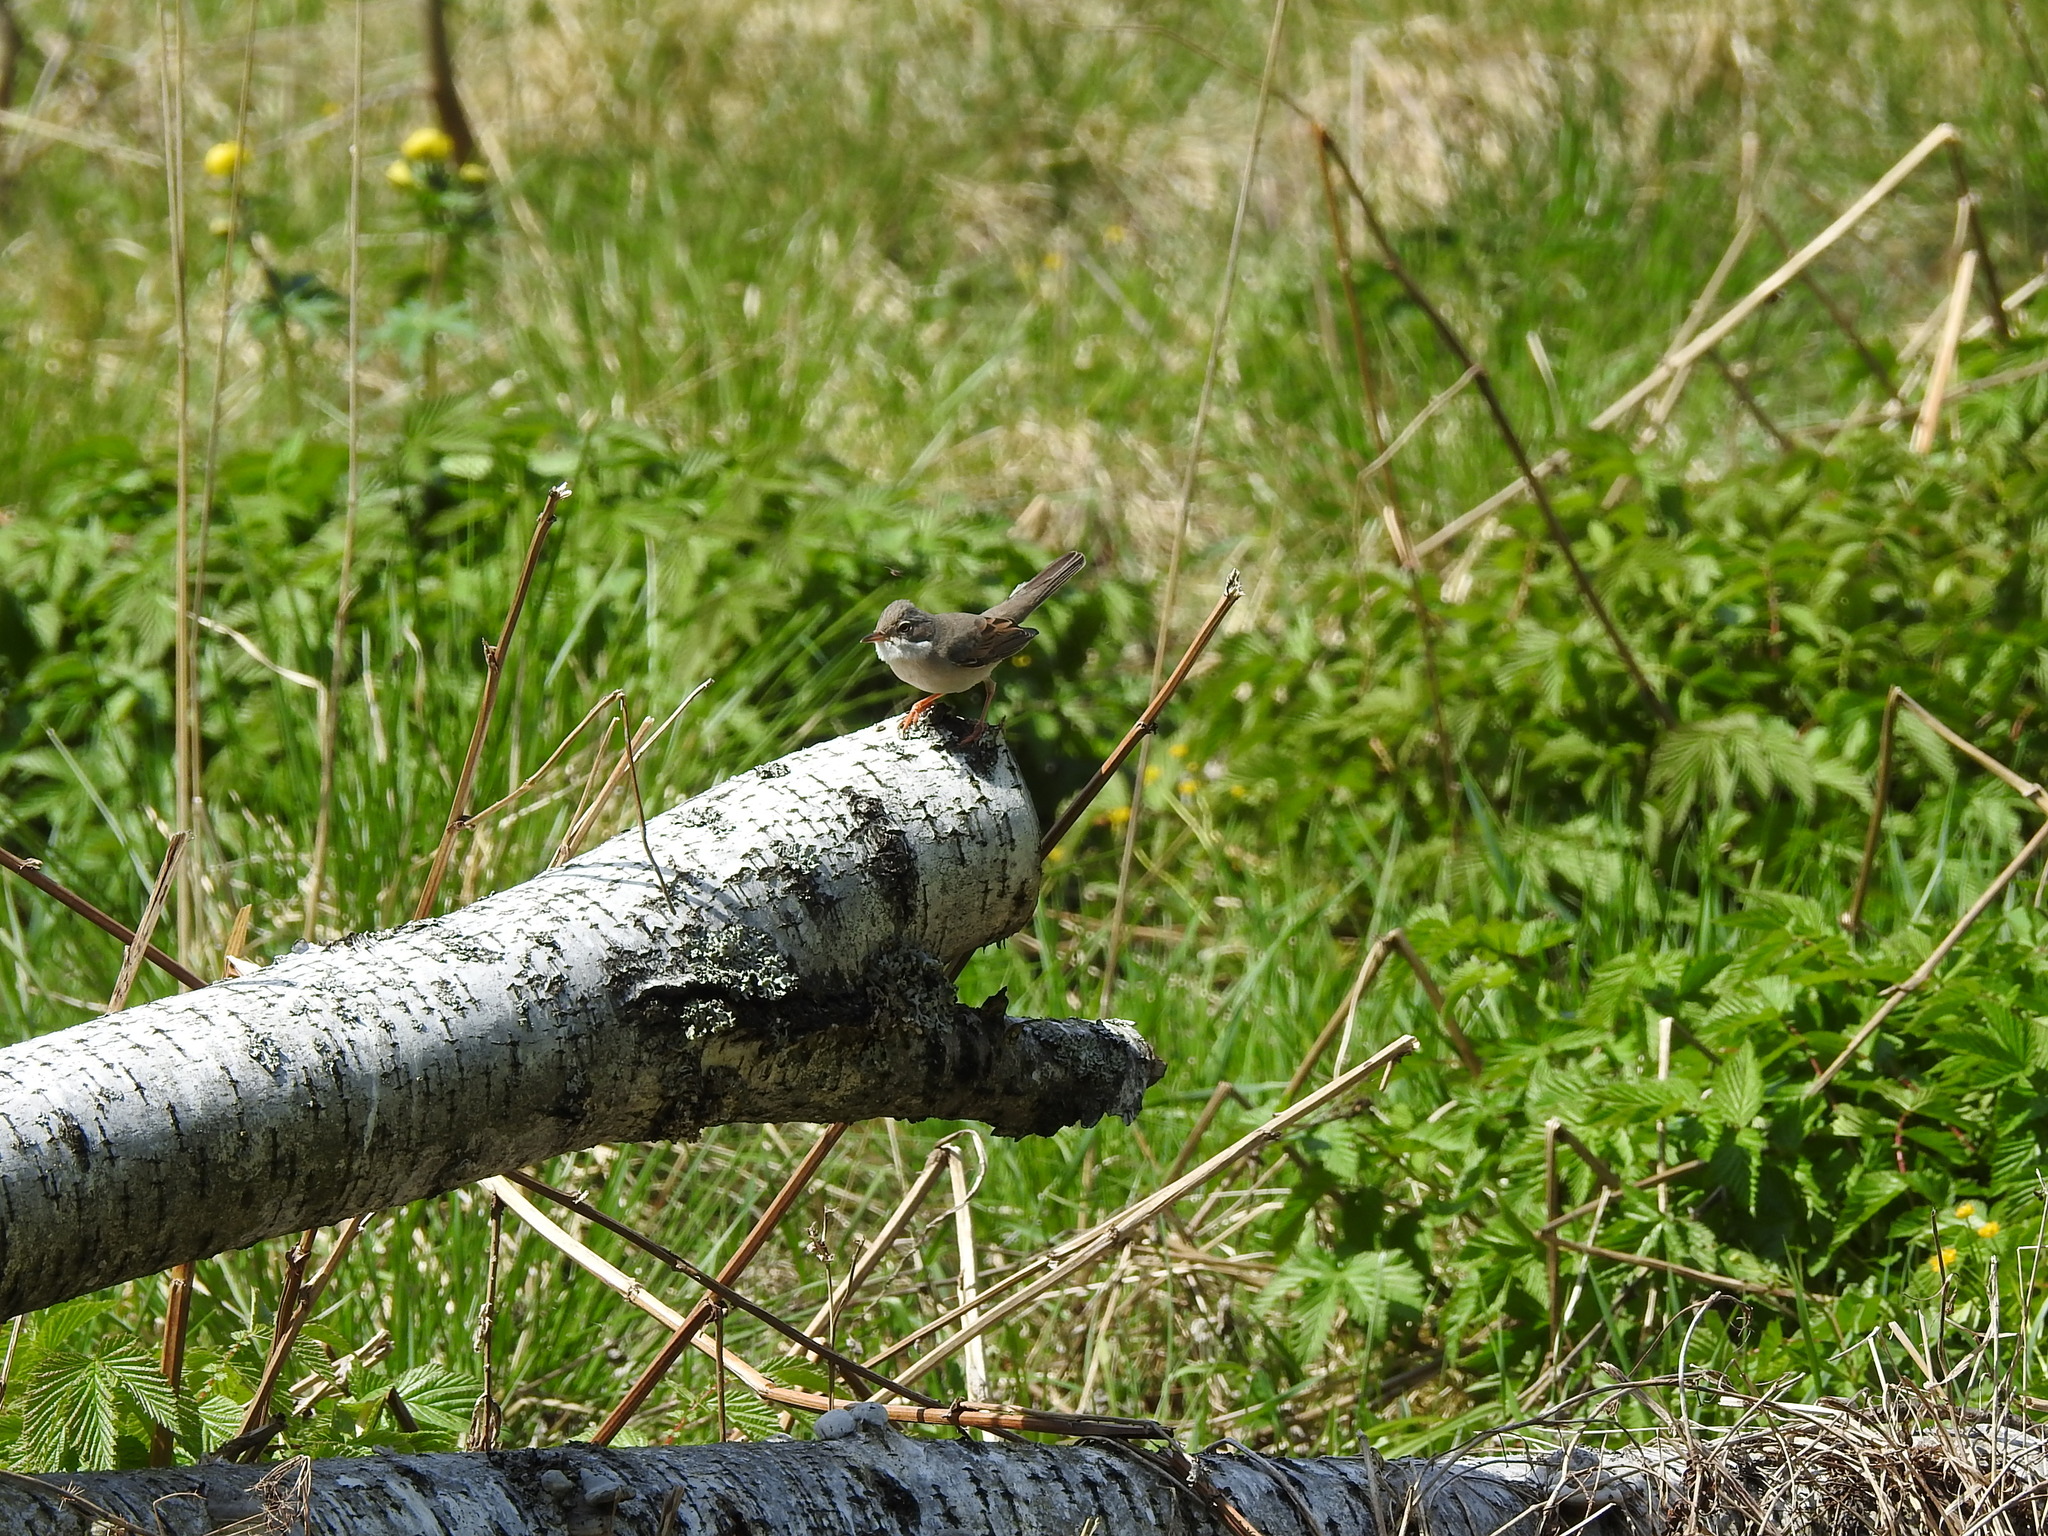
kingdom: Animalia
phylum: Chordata
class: Aves
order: Passeriformes
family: Sylviidae
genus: Sylvia
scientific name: Sylvia communis
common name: Common whitethroat
